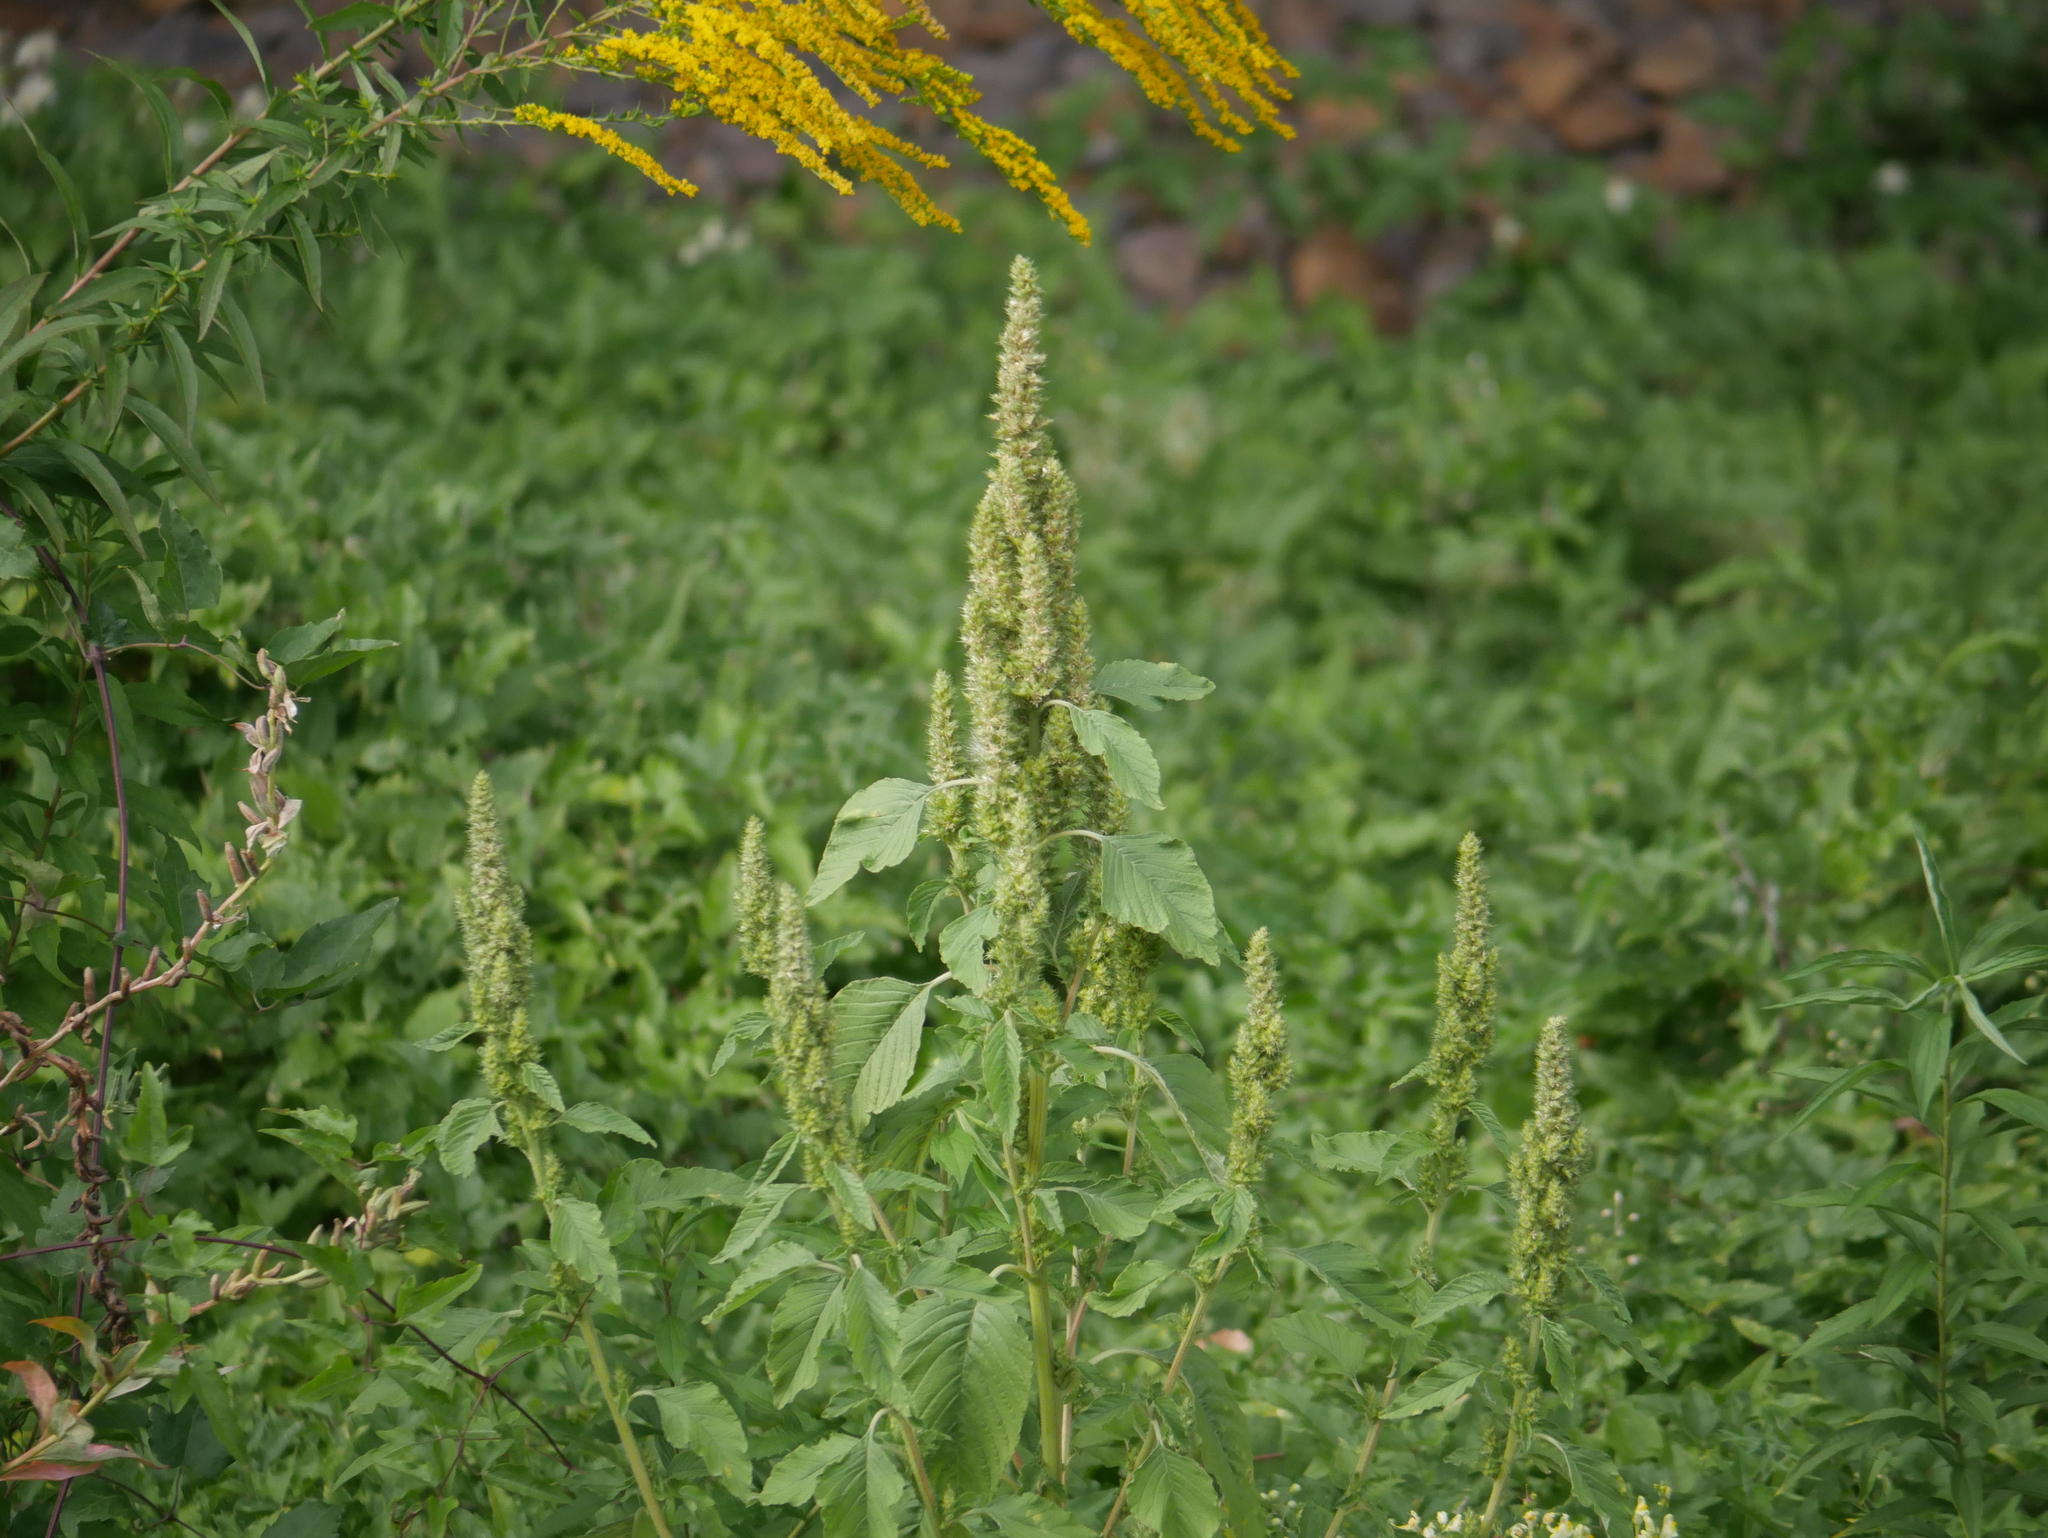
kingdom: Plantae
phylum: Tracheophyta
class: Magnoliopsida
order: Caryophyllales
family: Amaranthaceae
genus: Amaranthus
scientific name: Amaranthus retroflexus
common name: Redroot amaranth
